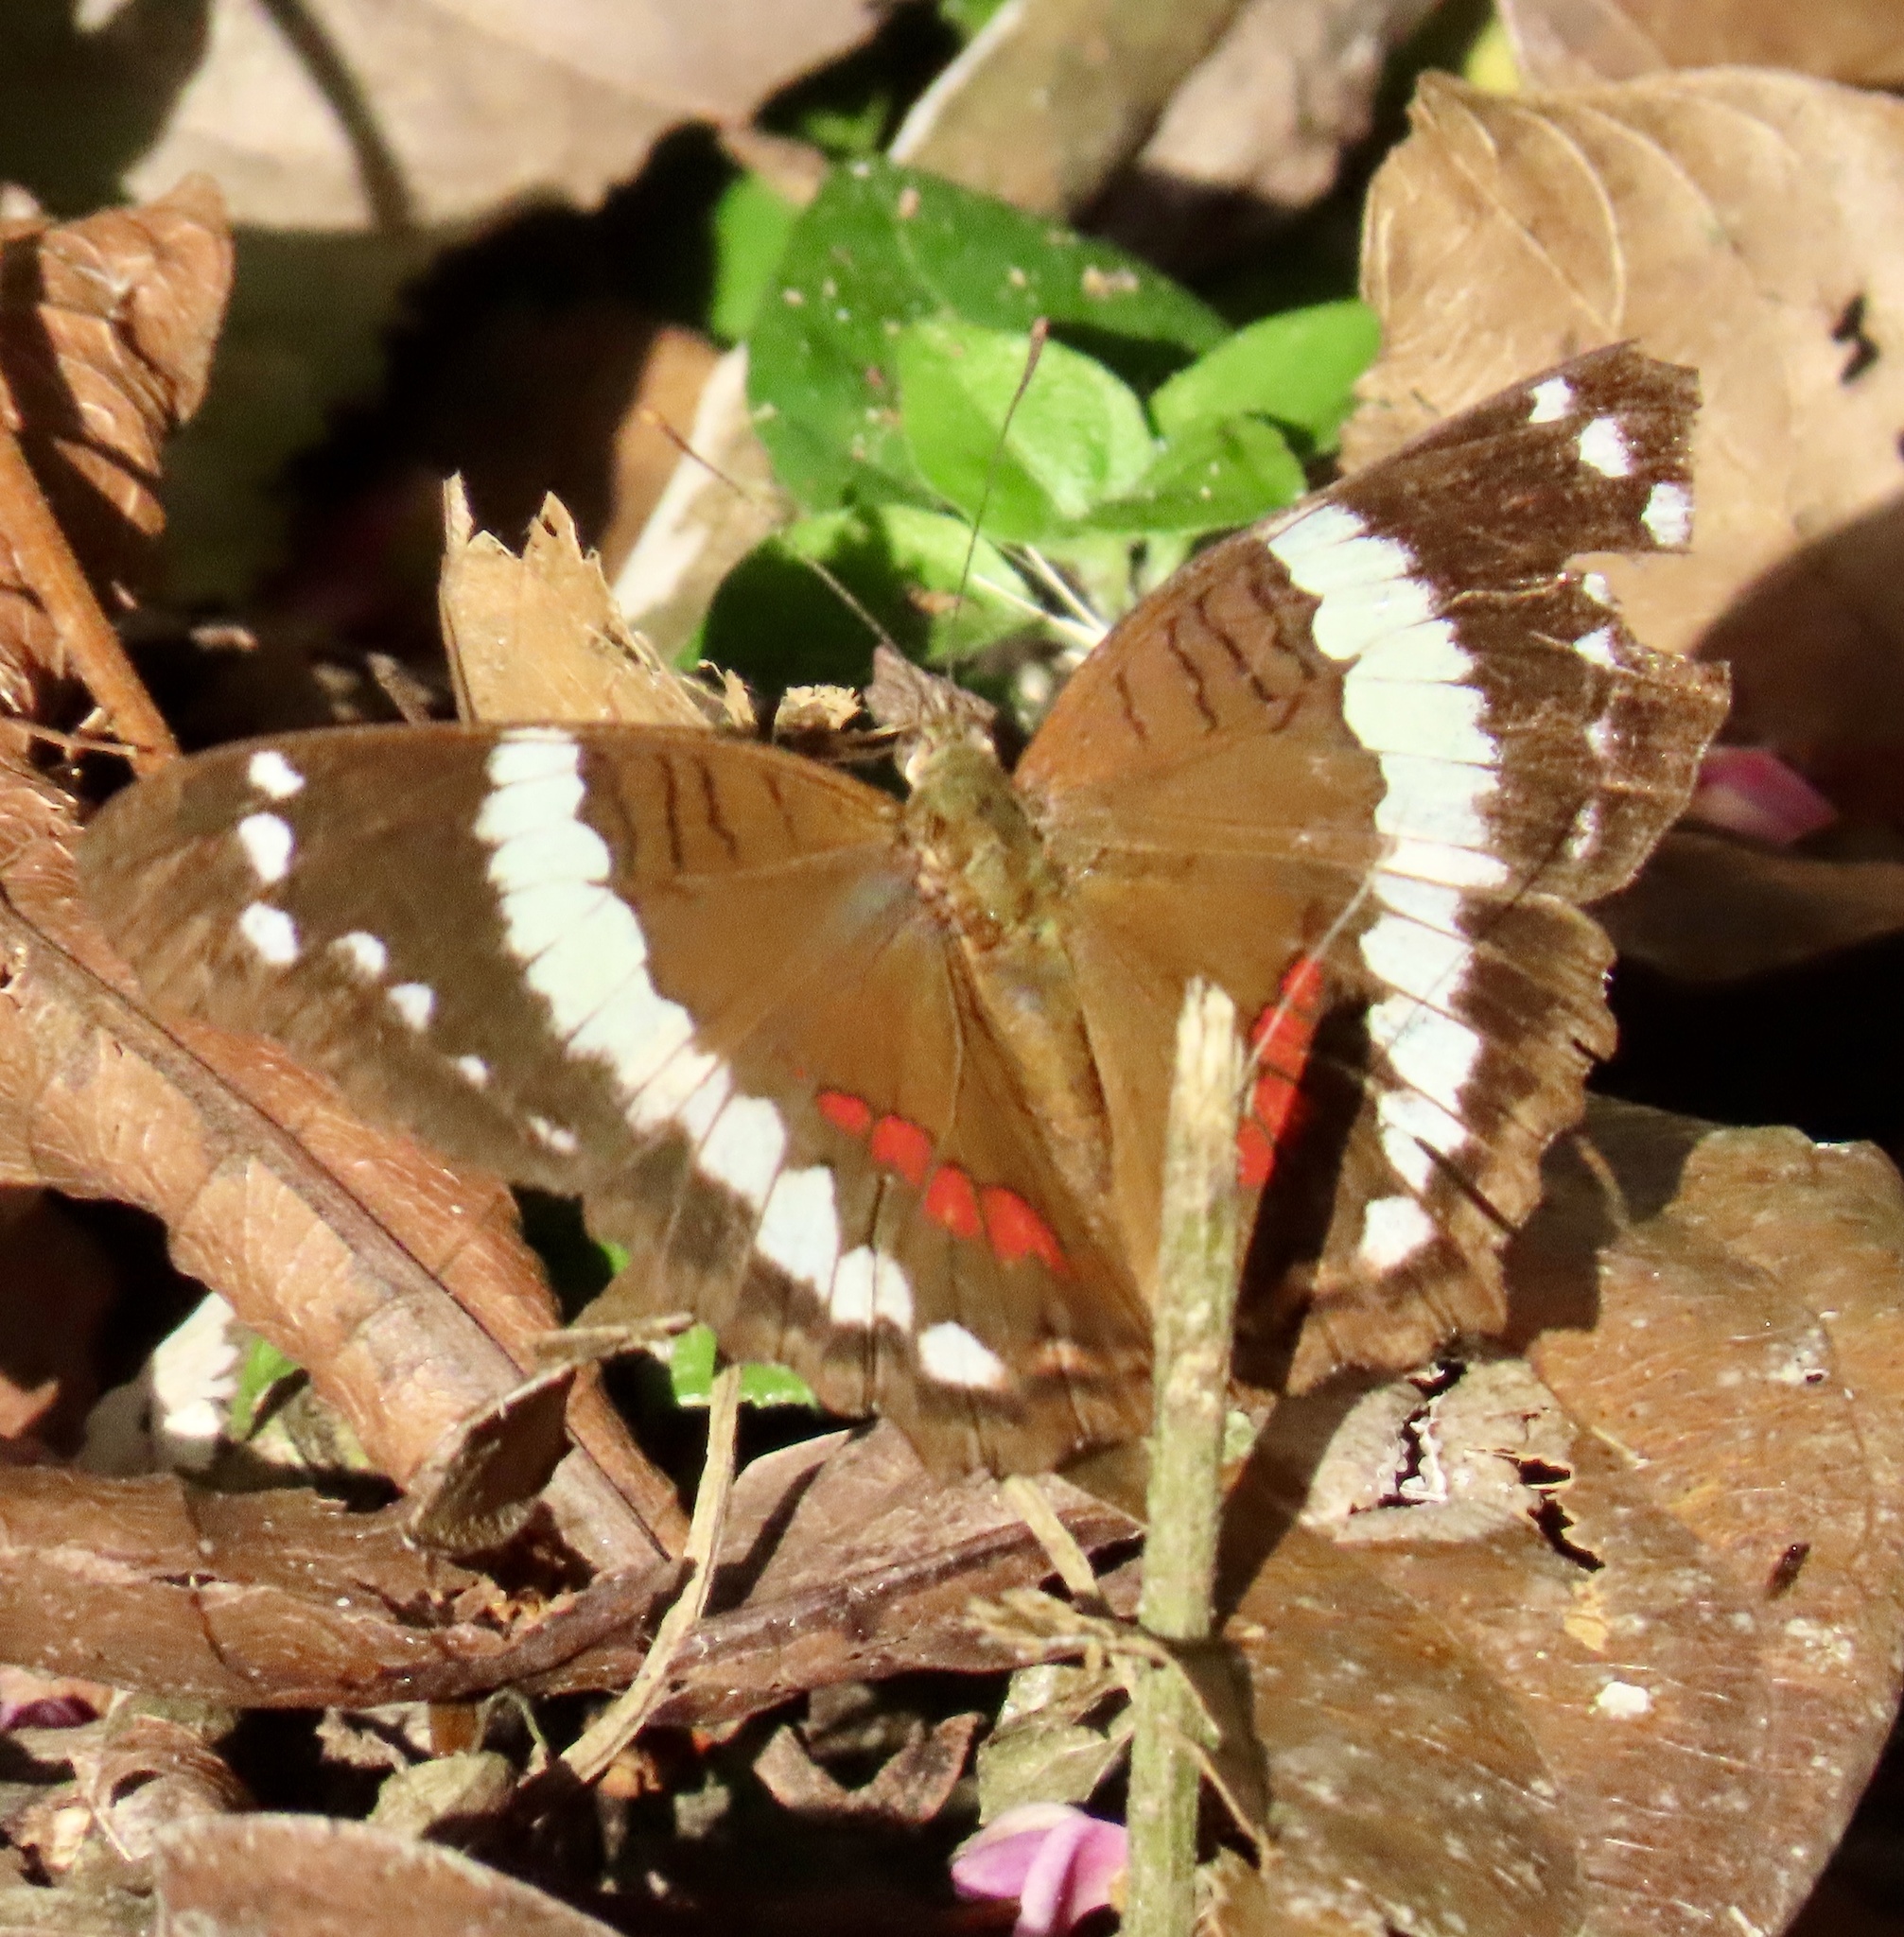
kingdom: Animalia
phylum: Arthropoda
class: Insecta
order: Lepidoptera
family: Nymphalidae
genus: Anartia
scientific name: Anartia fatima
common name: Banded peacock
